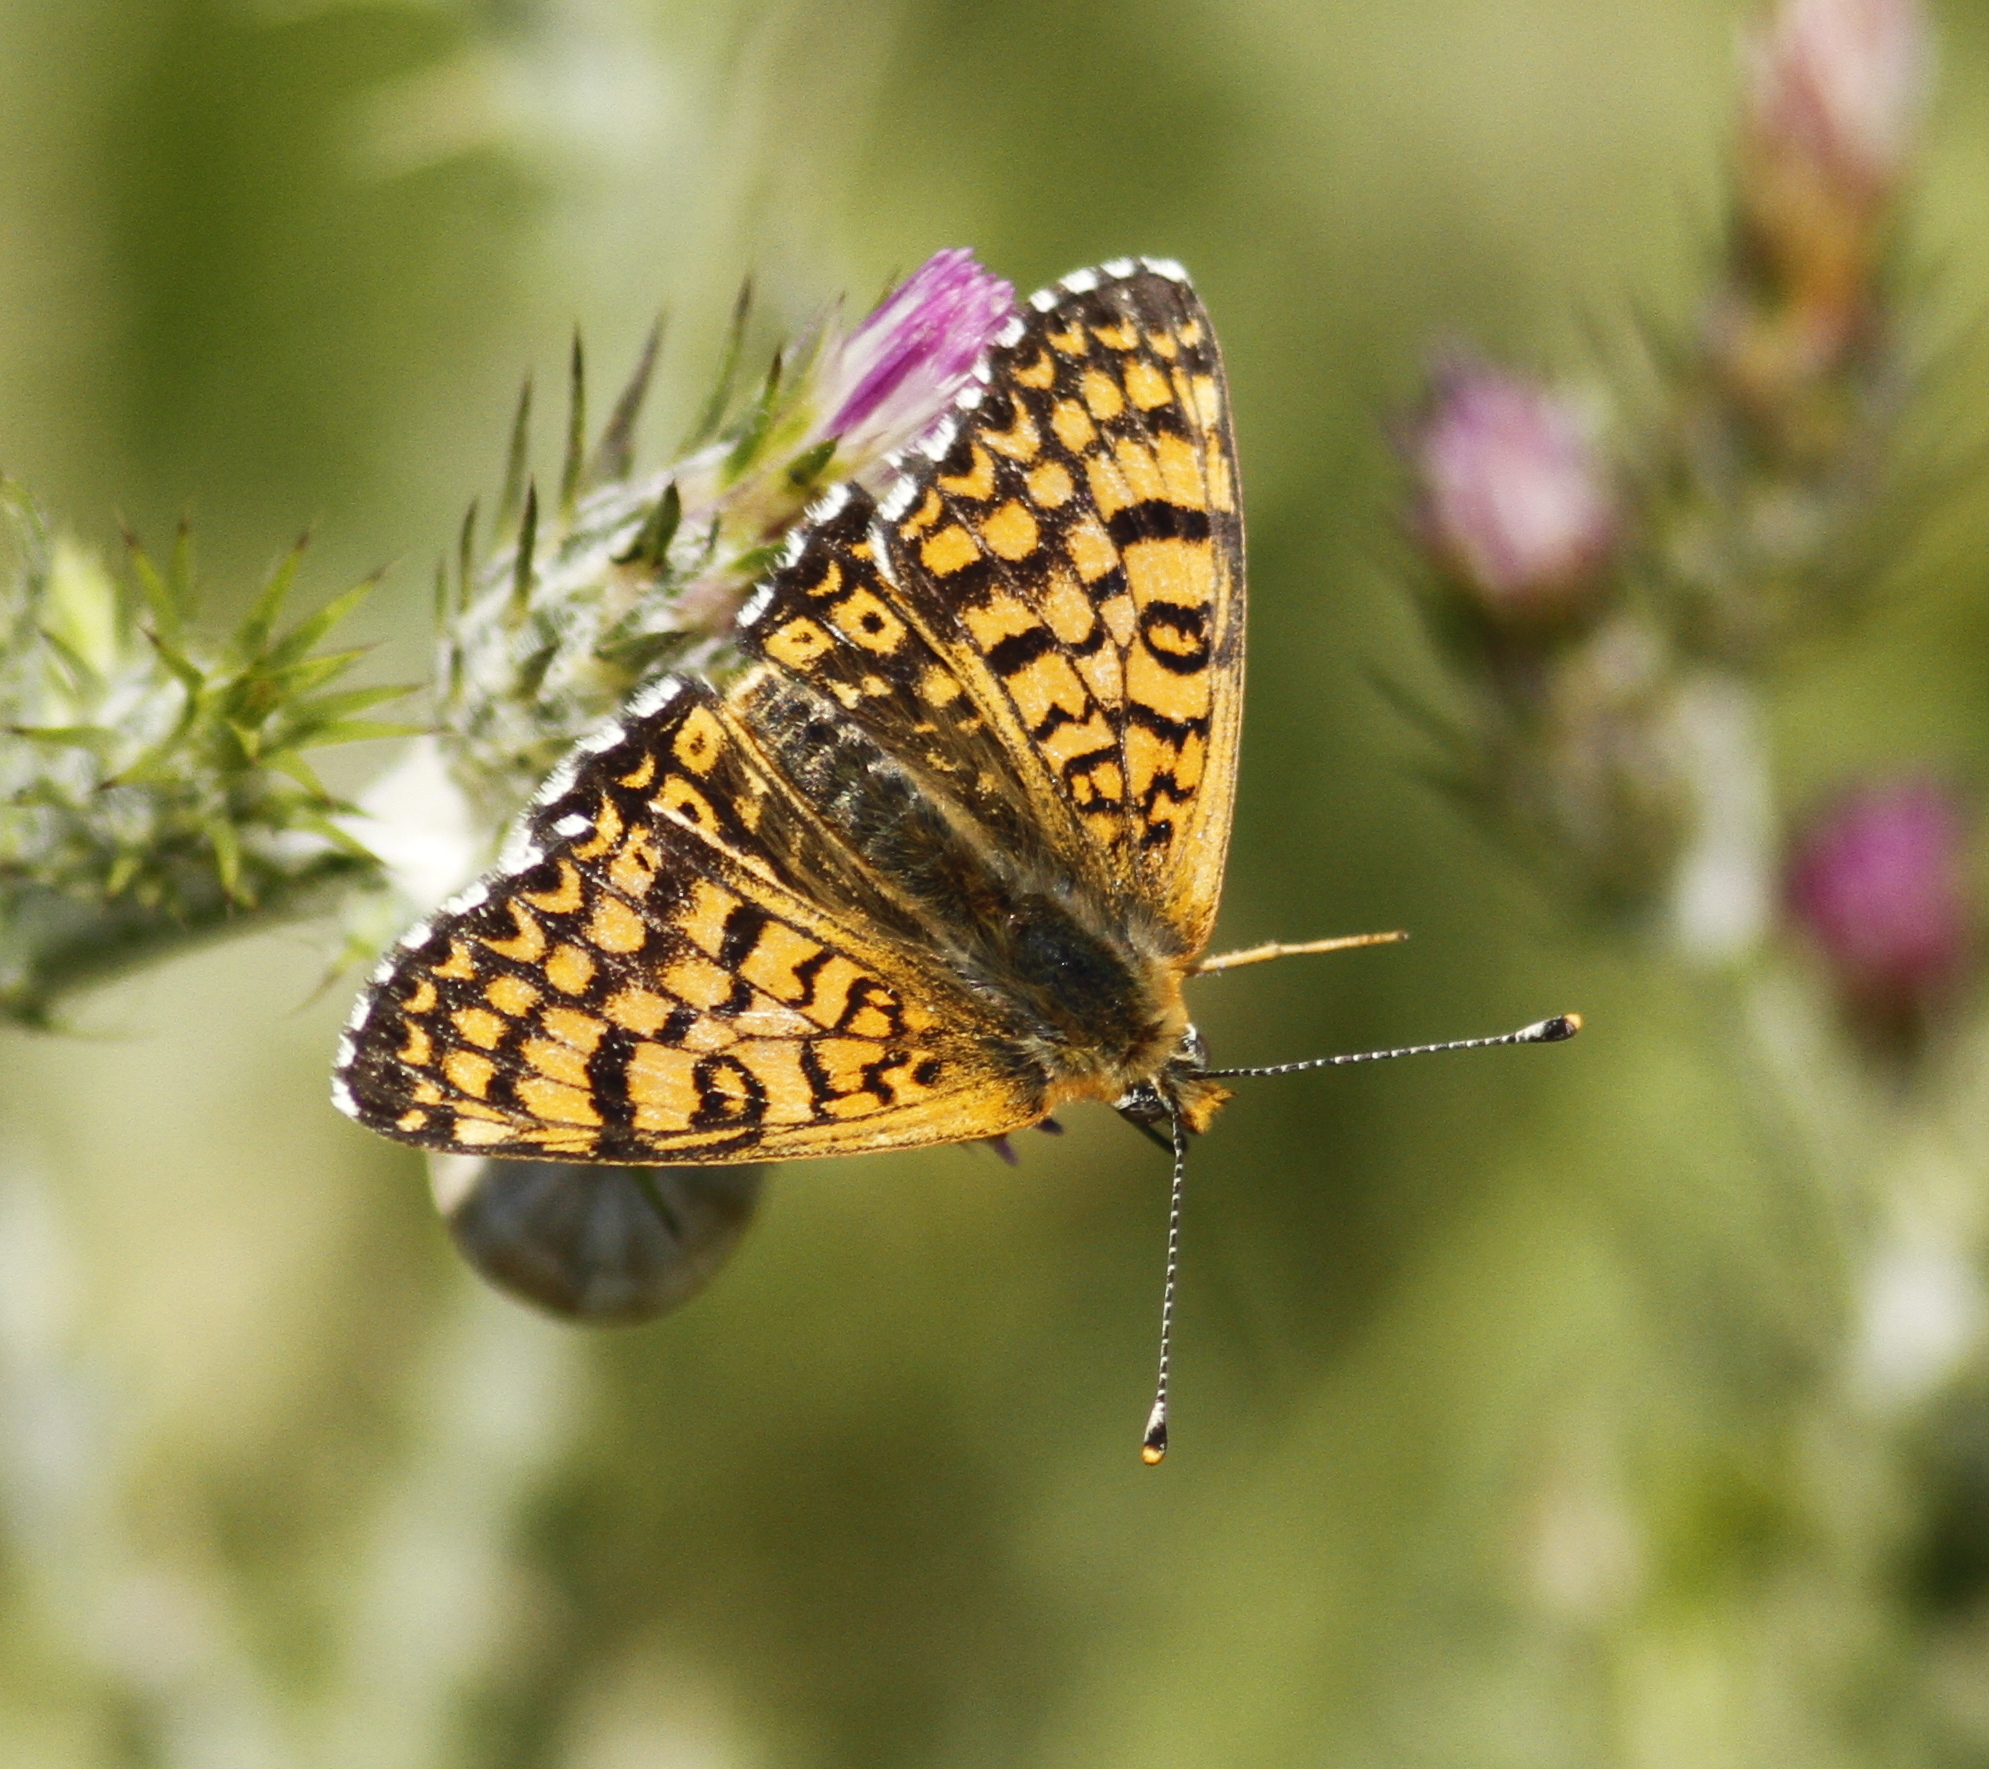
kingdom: Animalia
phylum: Arthropoda
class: Insecta
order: Lepidoptera
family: Nymphalidae
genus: Melitaea
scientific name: Melitaea cinxia
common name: Glanville fritillary
